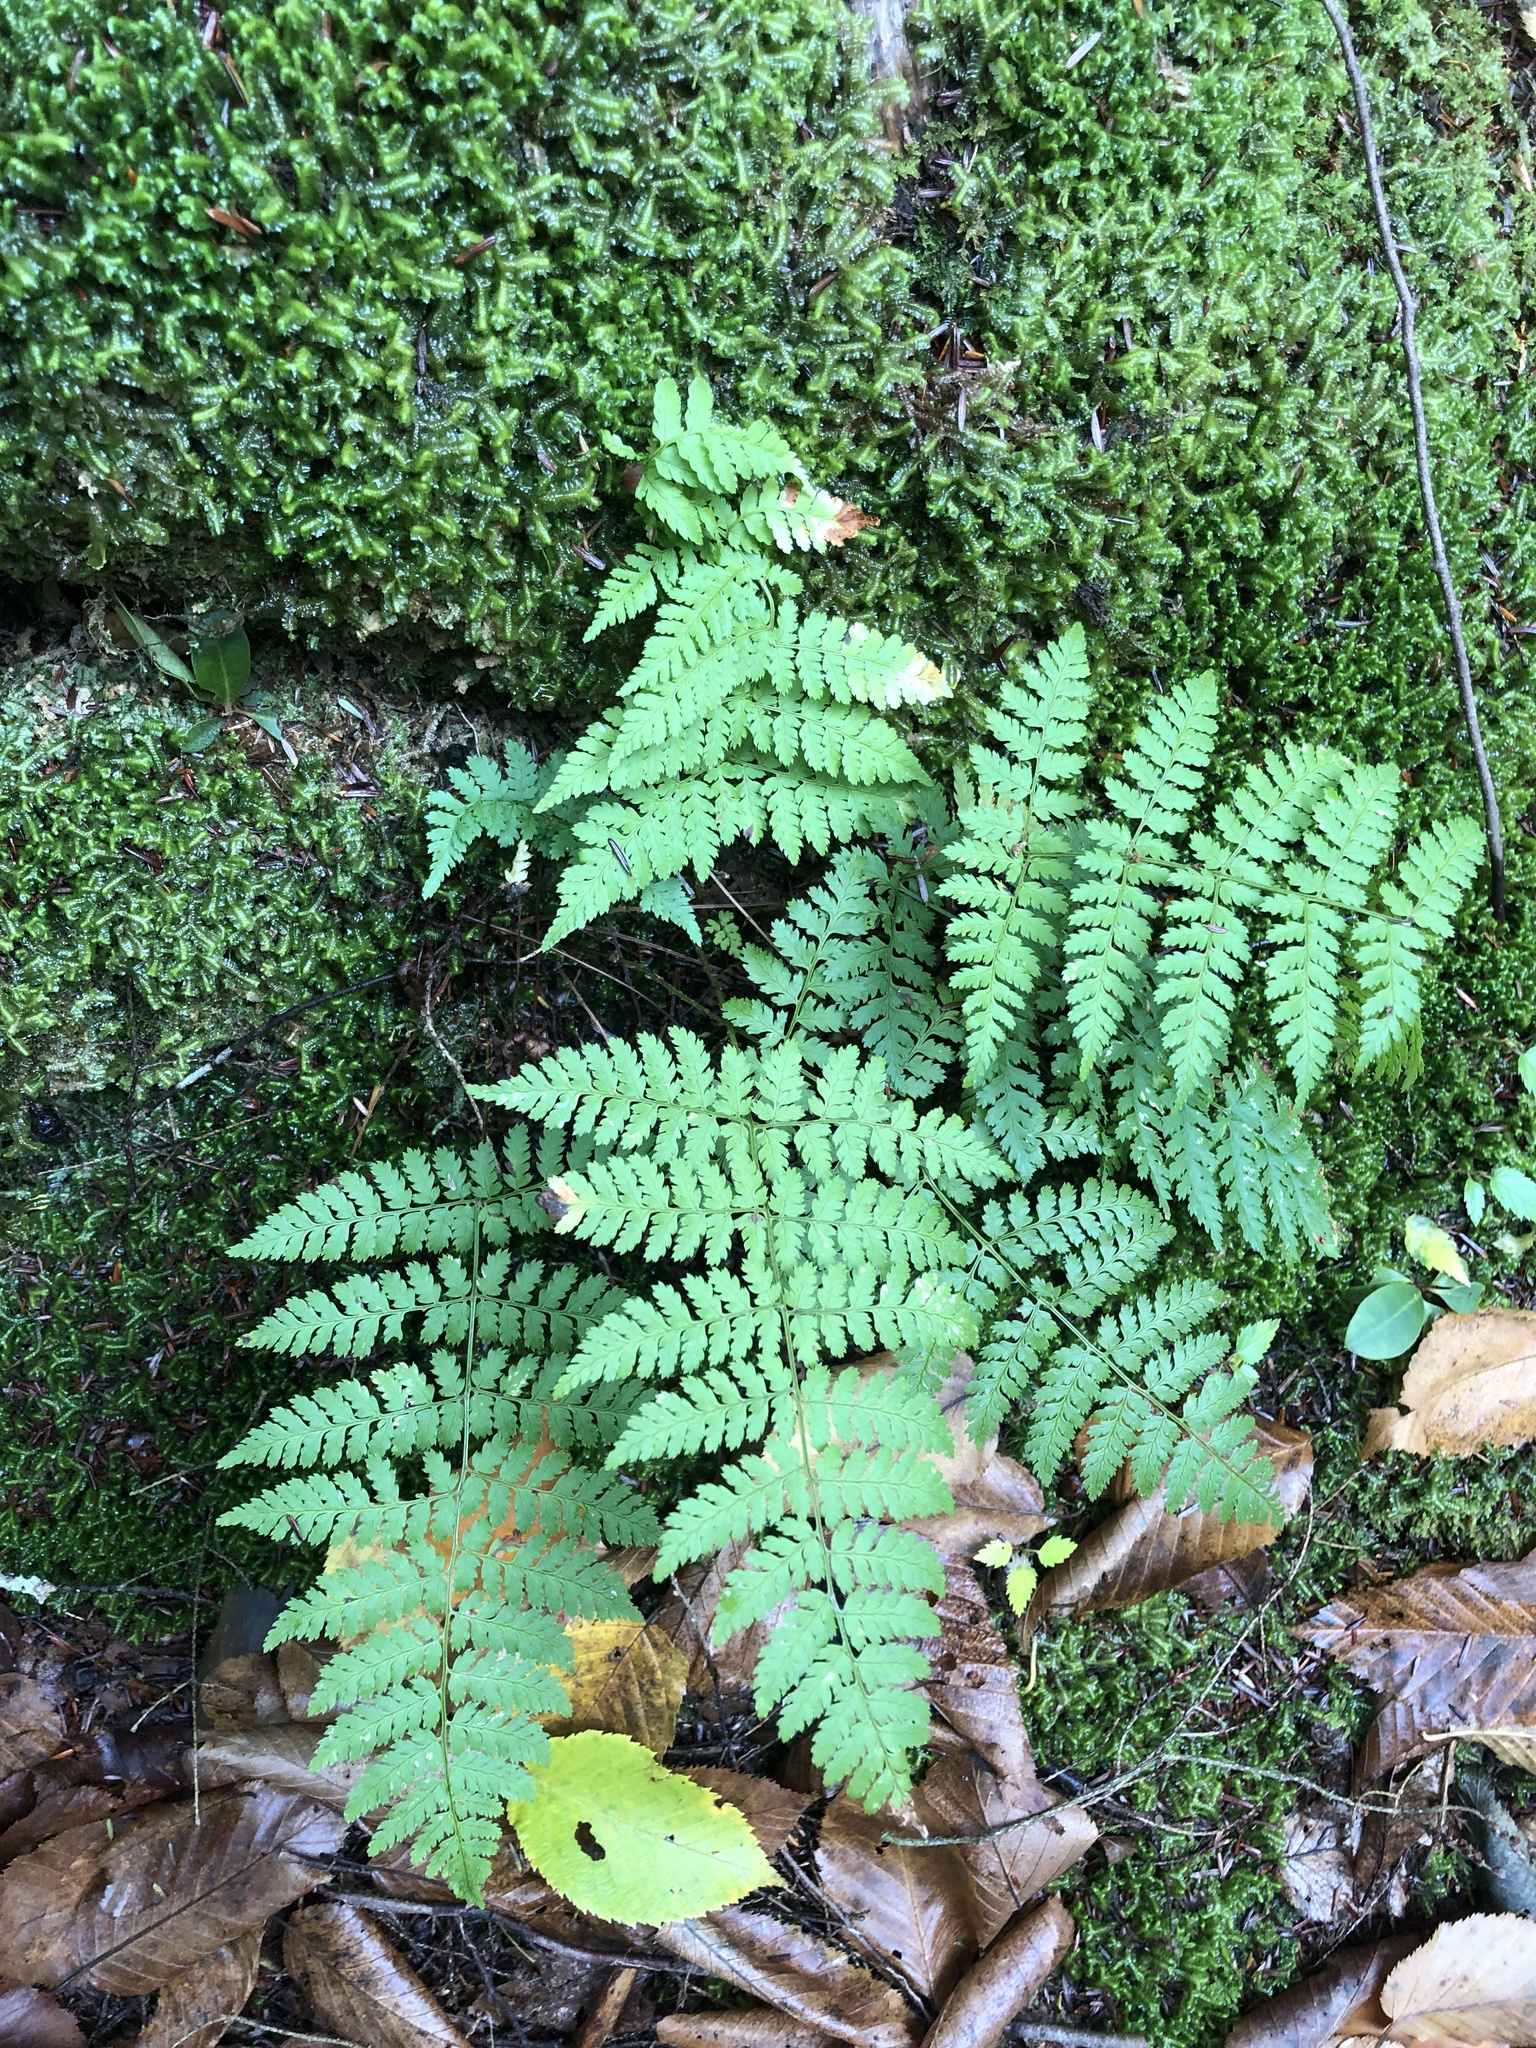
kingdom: Plantae
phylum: Tracheophyta
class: Polypodiopsida
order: Polypodiales
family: Dryopteridaceae
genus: Dryopteris
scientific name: Dryopteris intermedia
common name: Evergreen wood fern
